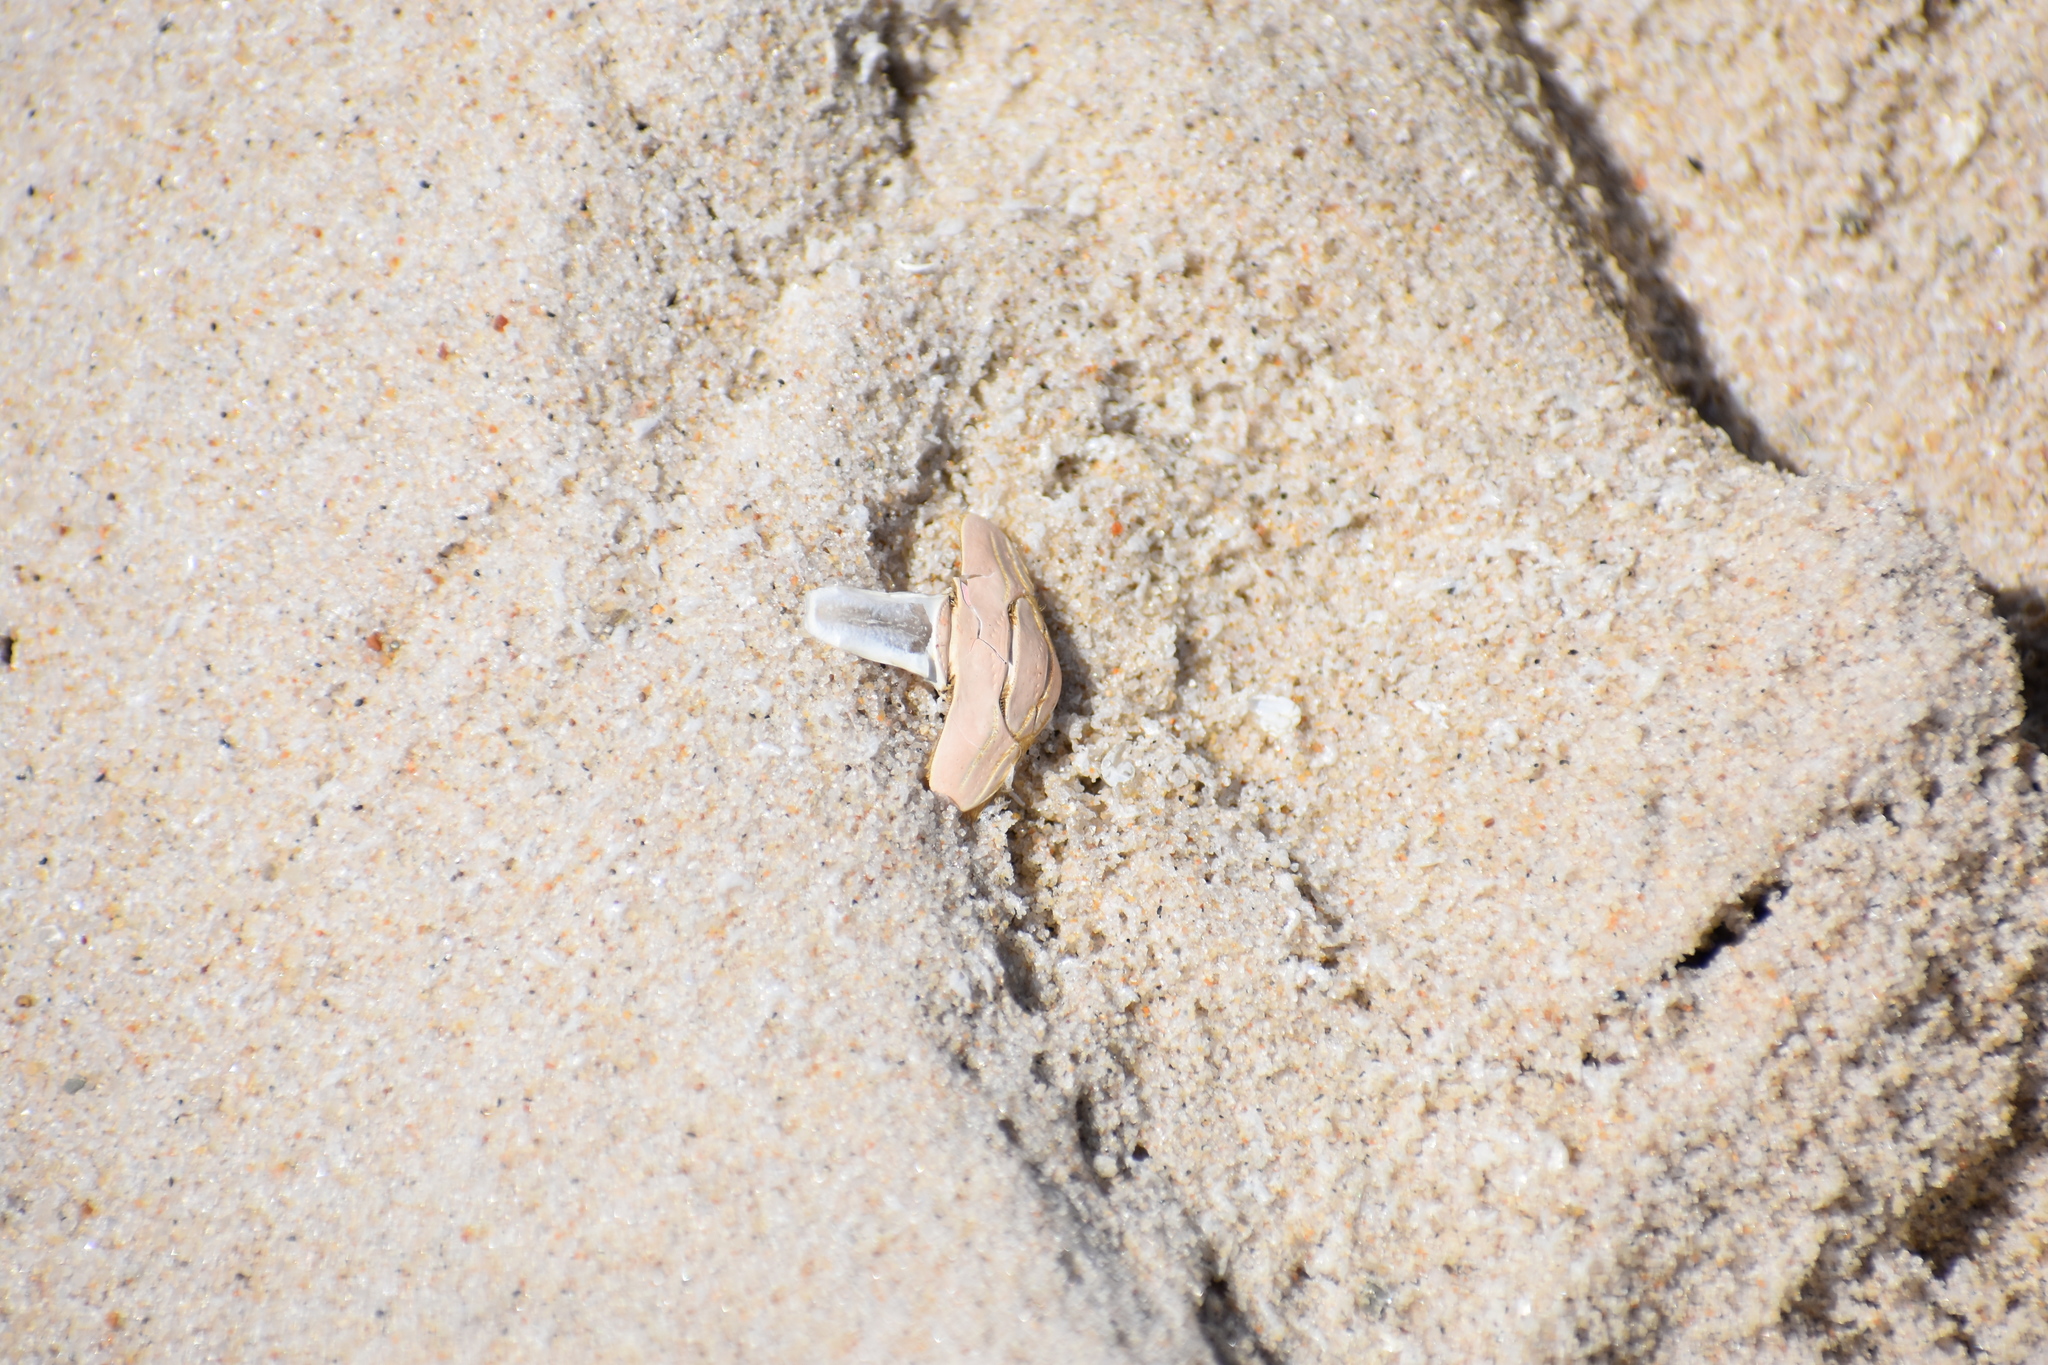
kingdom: Animalia
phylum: Arthropoda
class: Malacostraca
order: Decapoda
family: Hippidae
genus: Emerita
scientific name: Emerita talpoida
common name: Atlantic sand crab
